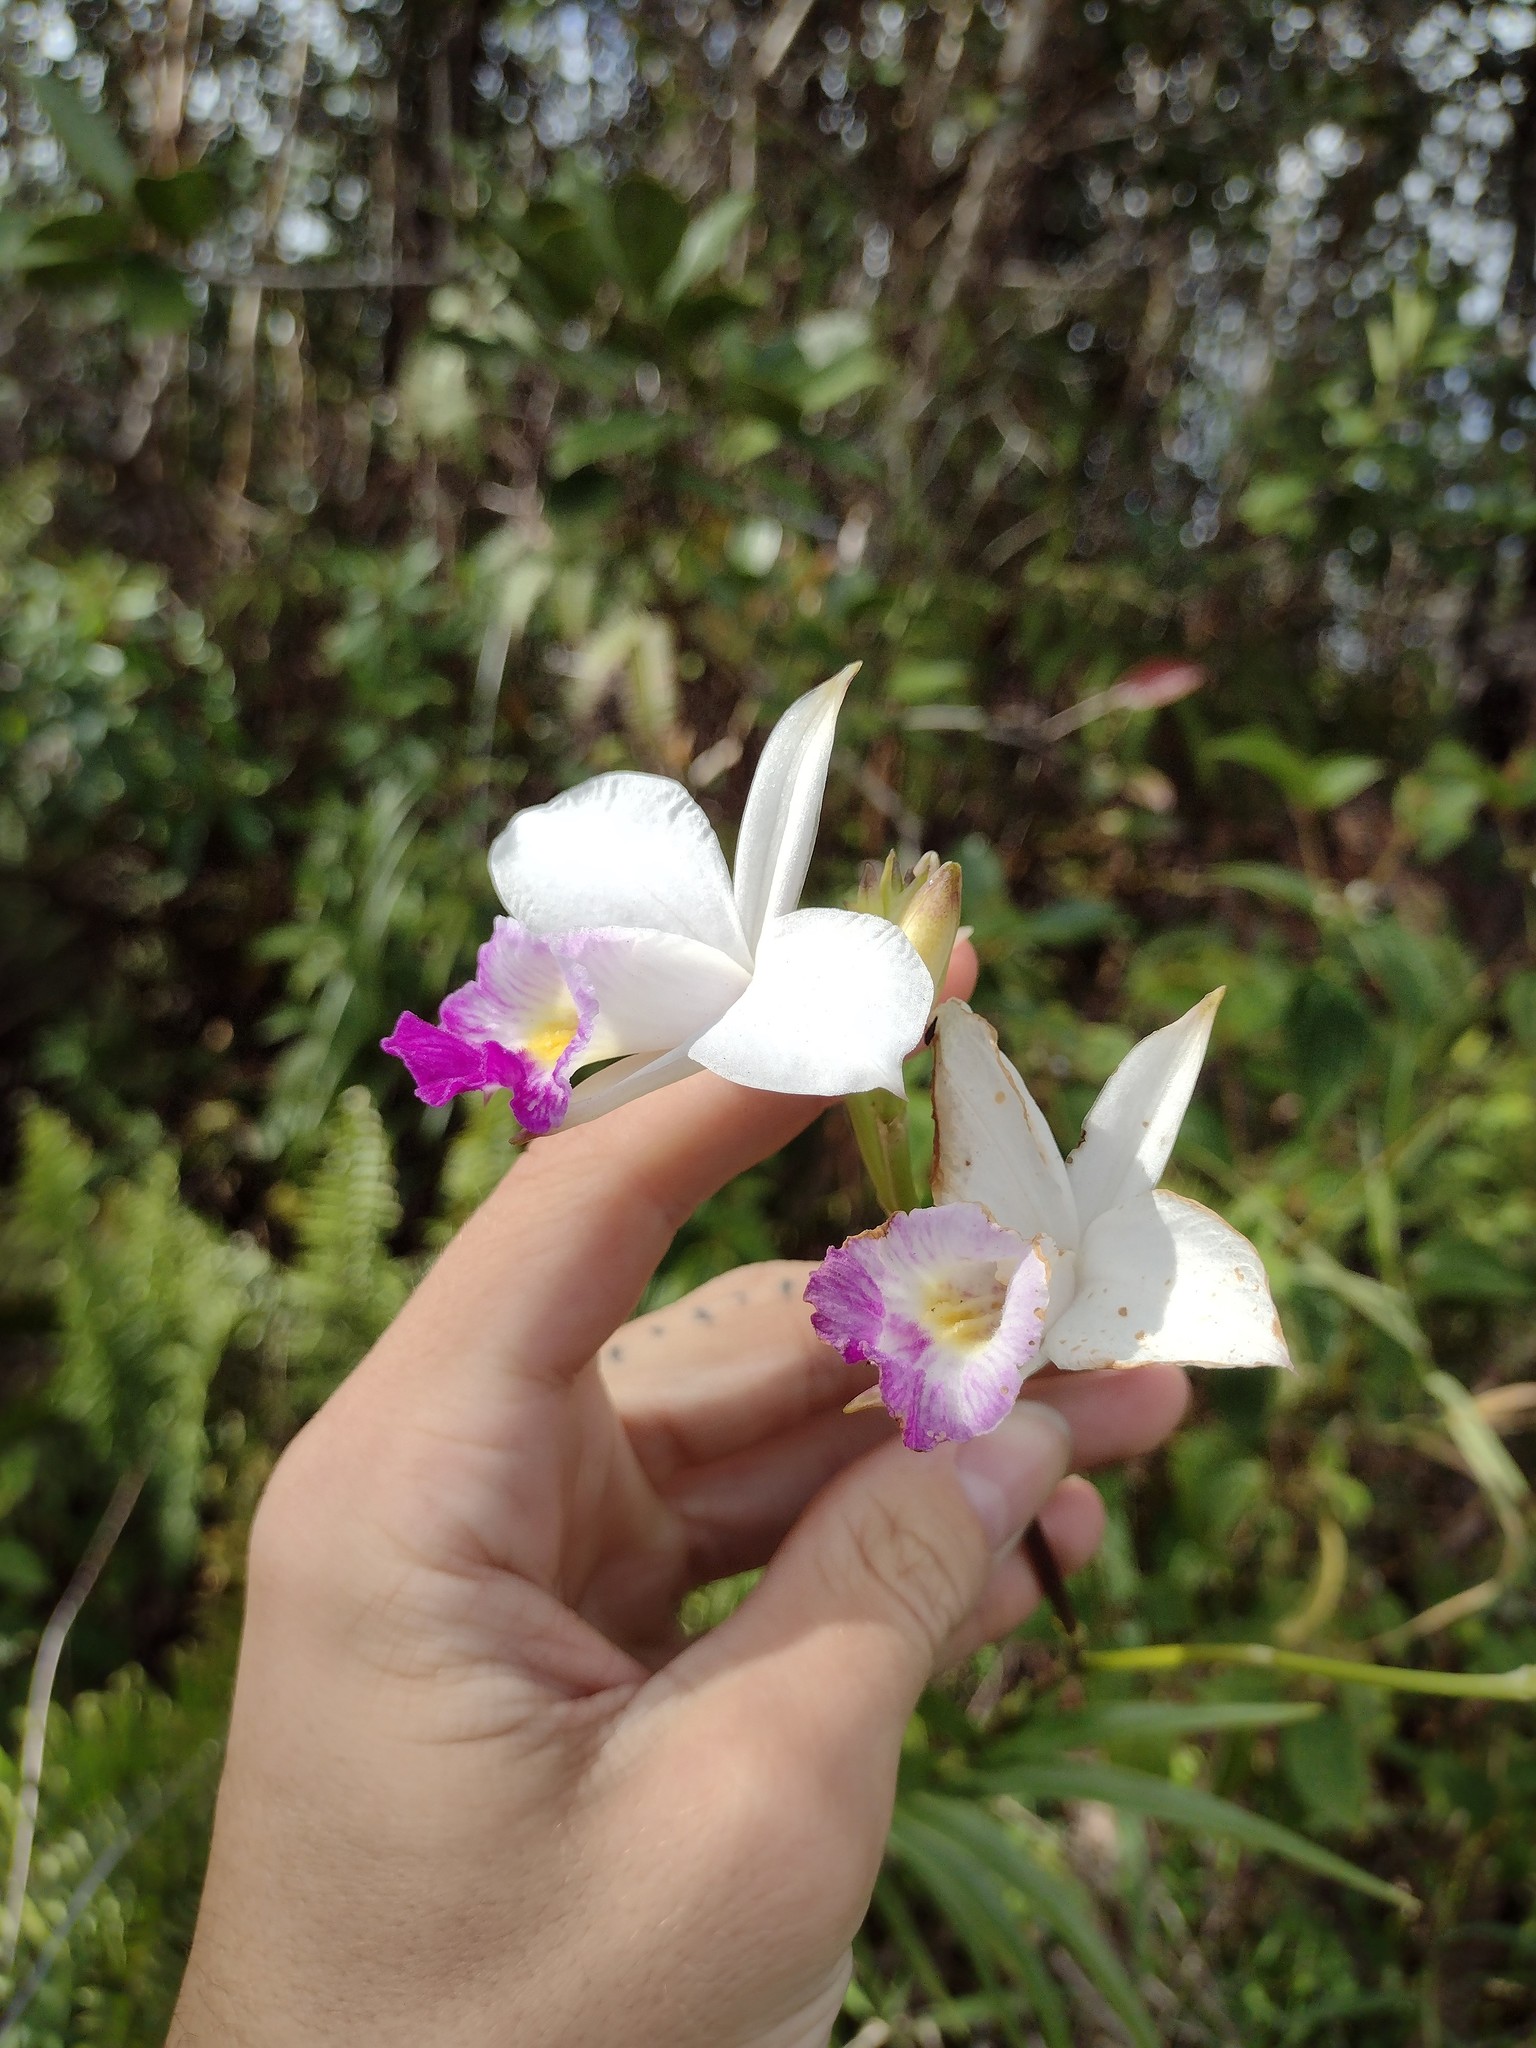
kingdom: Plantae
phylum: Tracheophyta
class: Liliopsida
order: Asparagales
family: Orchidaceae
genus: Arundina
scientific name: Arundina graminifolia
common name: Bamboo orchid
